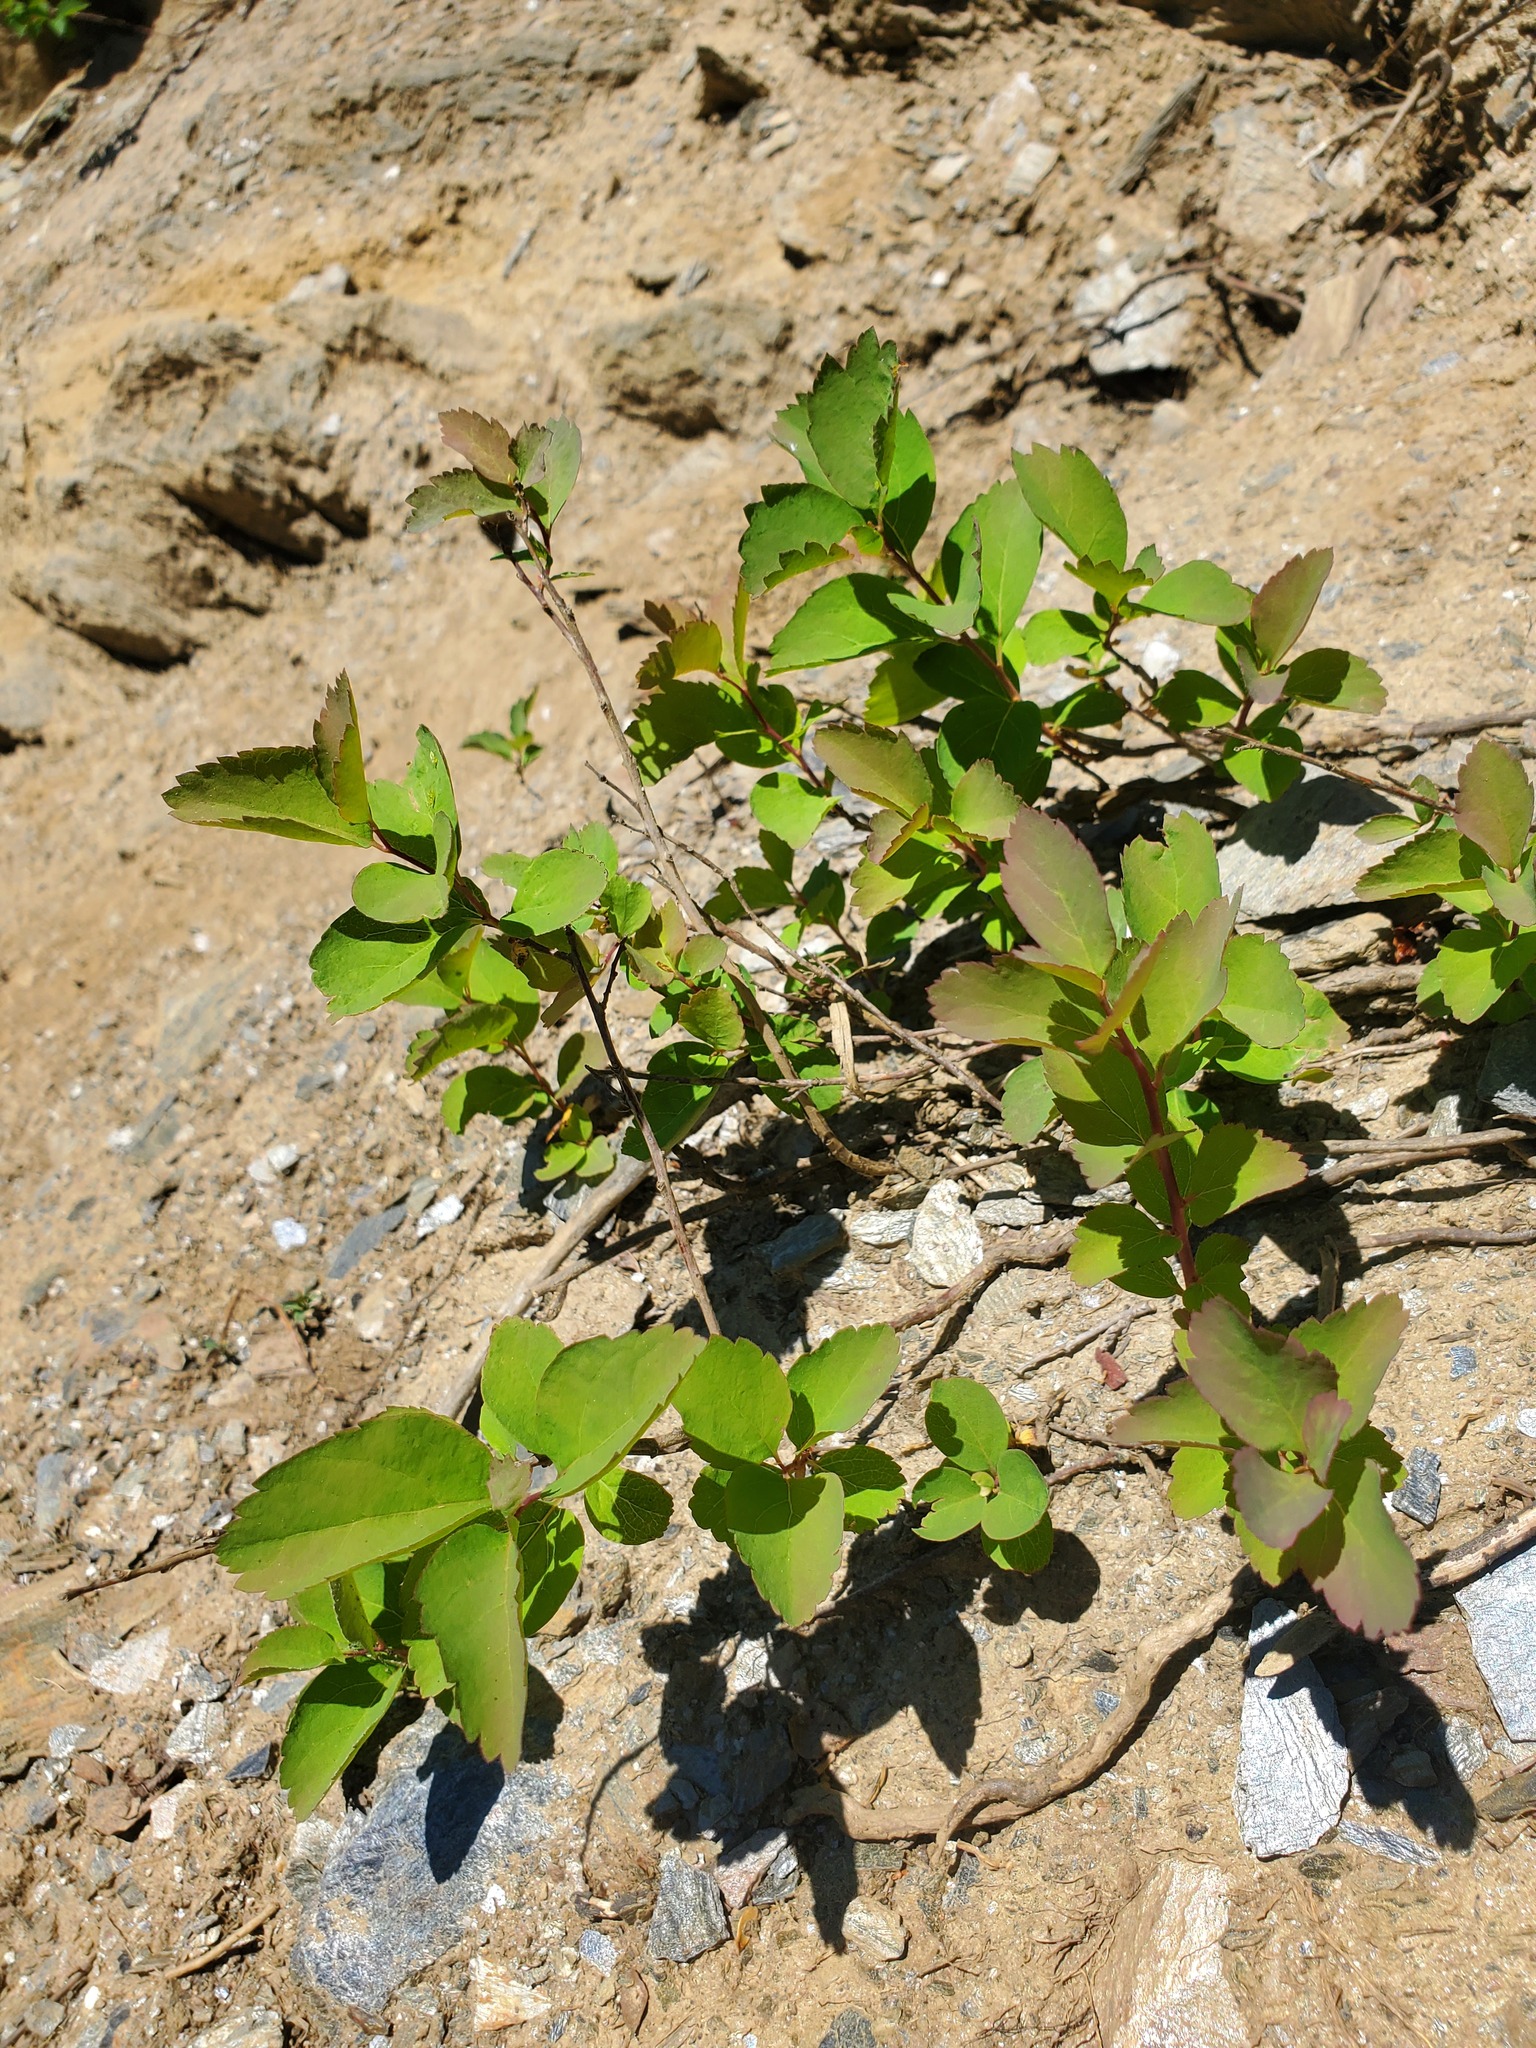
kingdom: Plantae
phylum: Tracheophyta
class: Magnoliopsida
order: Rosales
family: Rosaceae
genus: Spiraea
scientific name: Spiraea lucida
